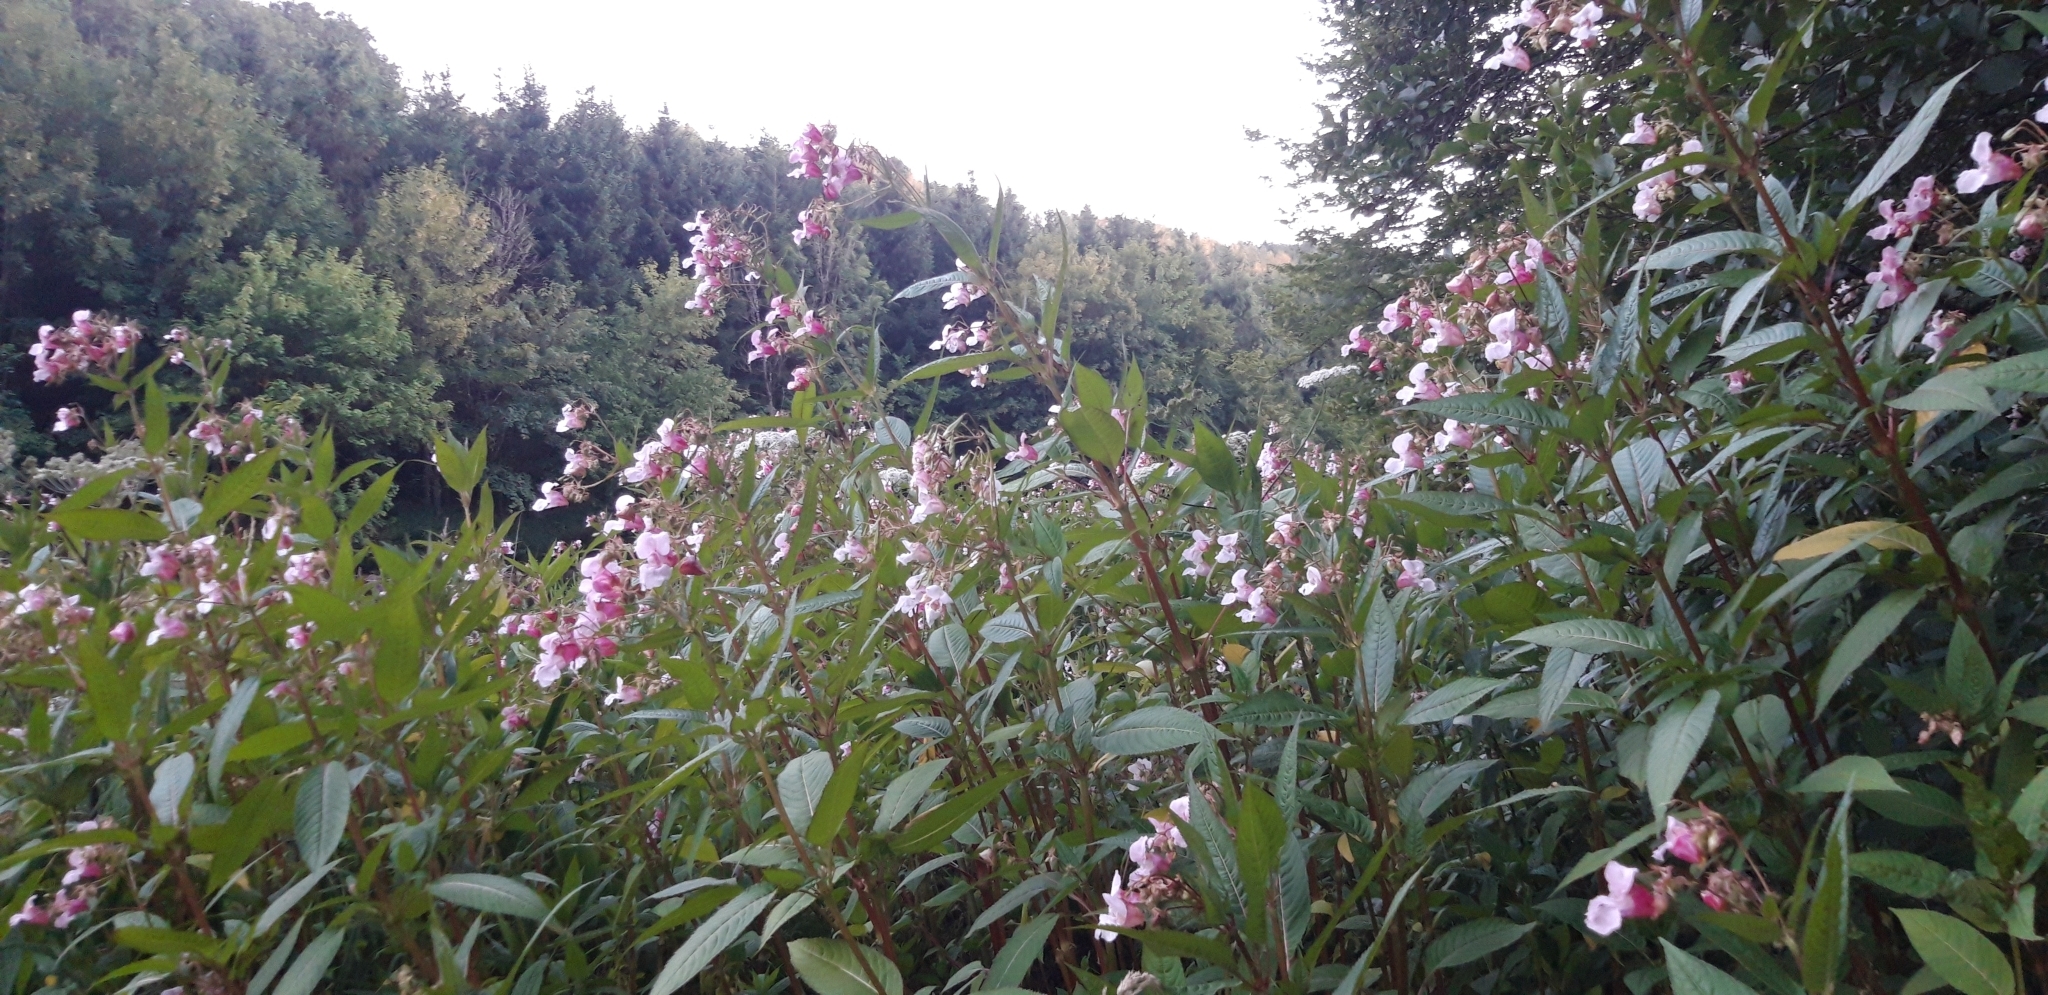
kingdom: Plantae
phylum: Tracheophyta
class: Magnoliopsida
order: Ericales
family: Balsaminaceae
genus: Impatiens
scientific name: Impatiens glandulifera
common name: Himalayan balsam
